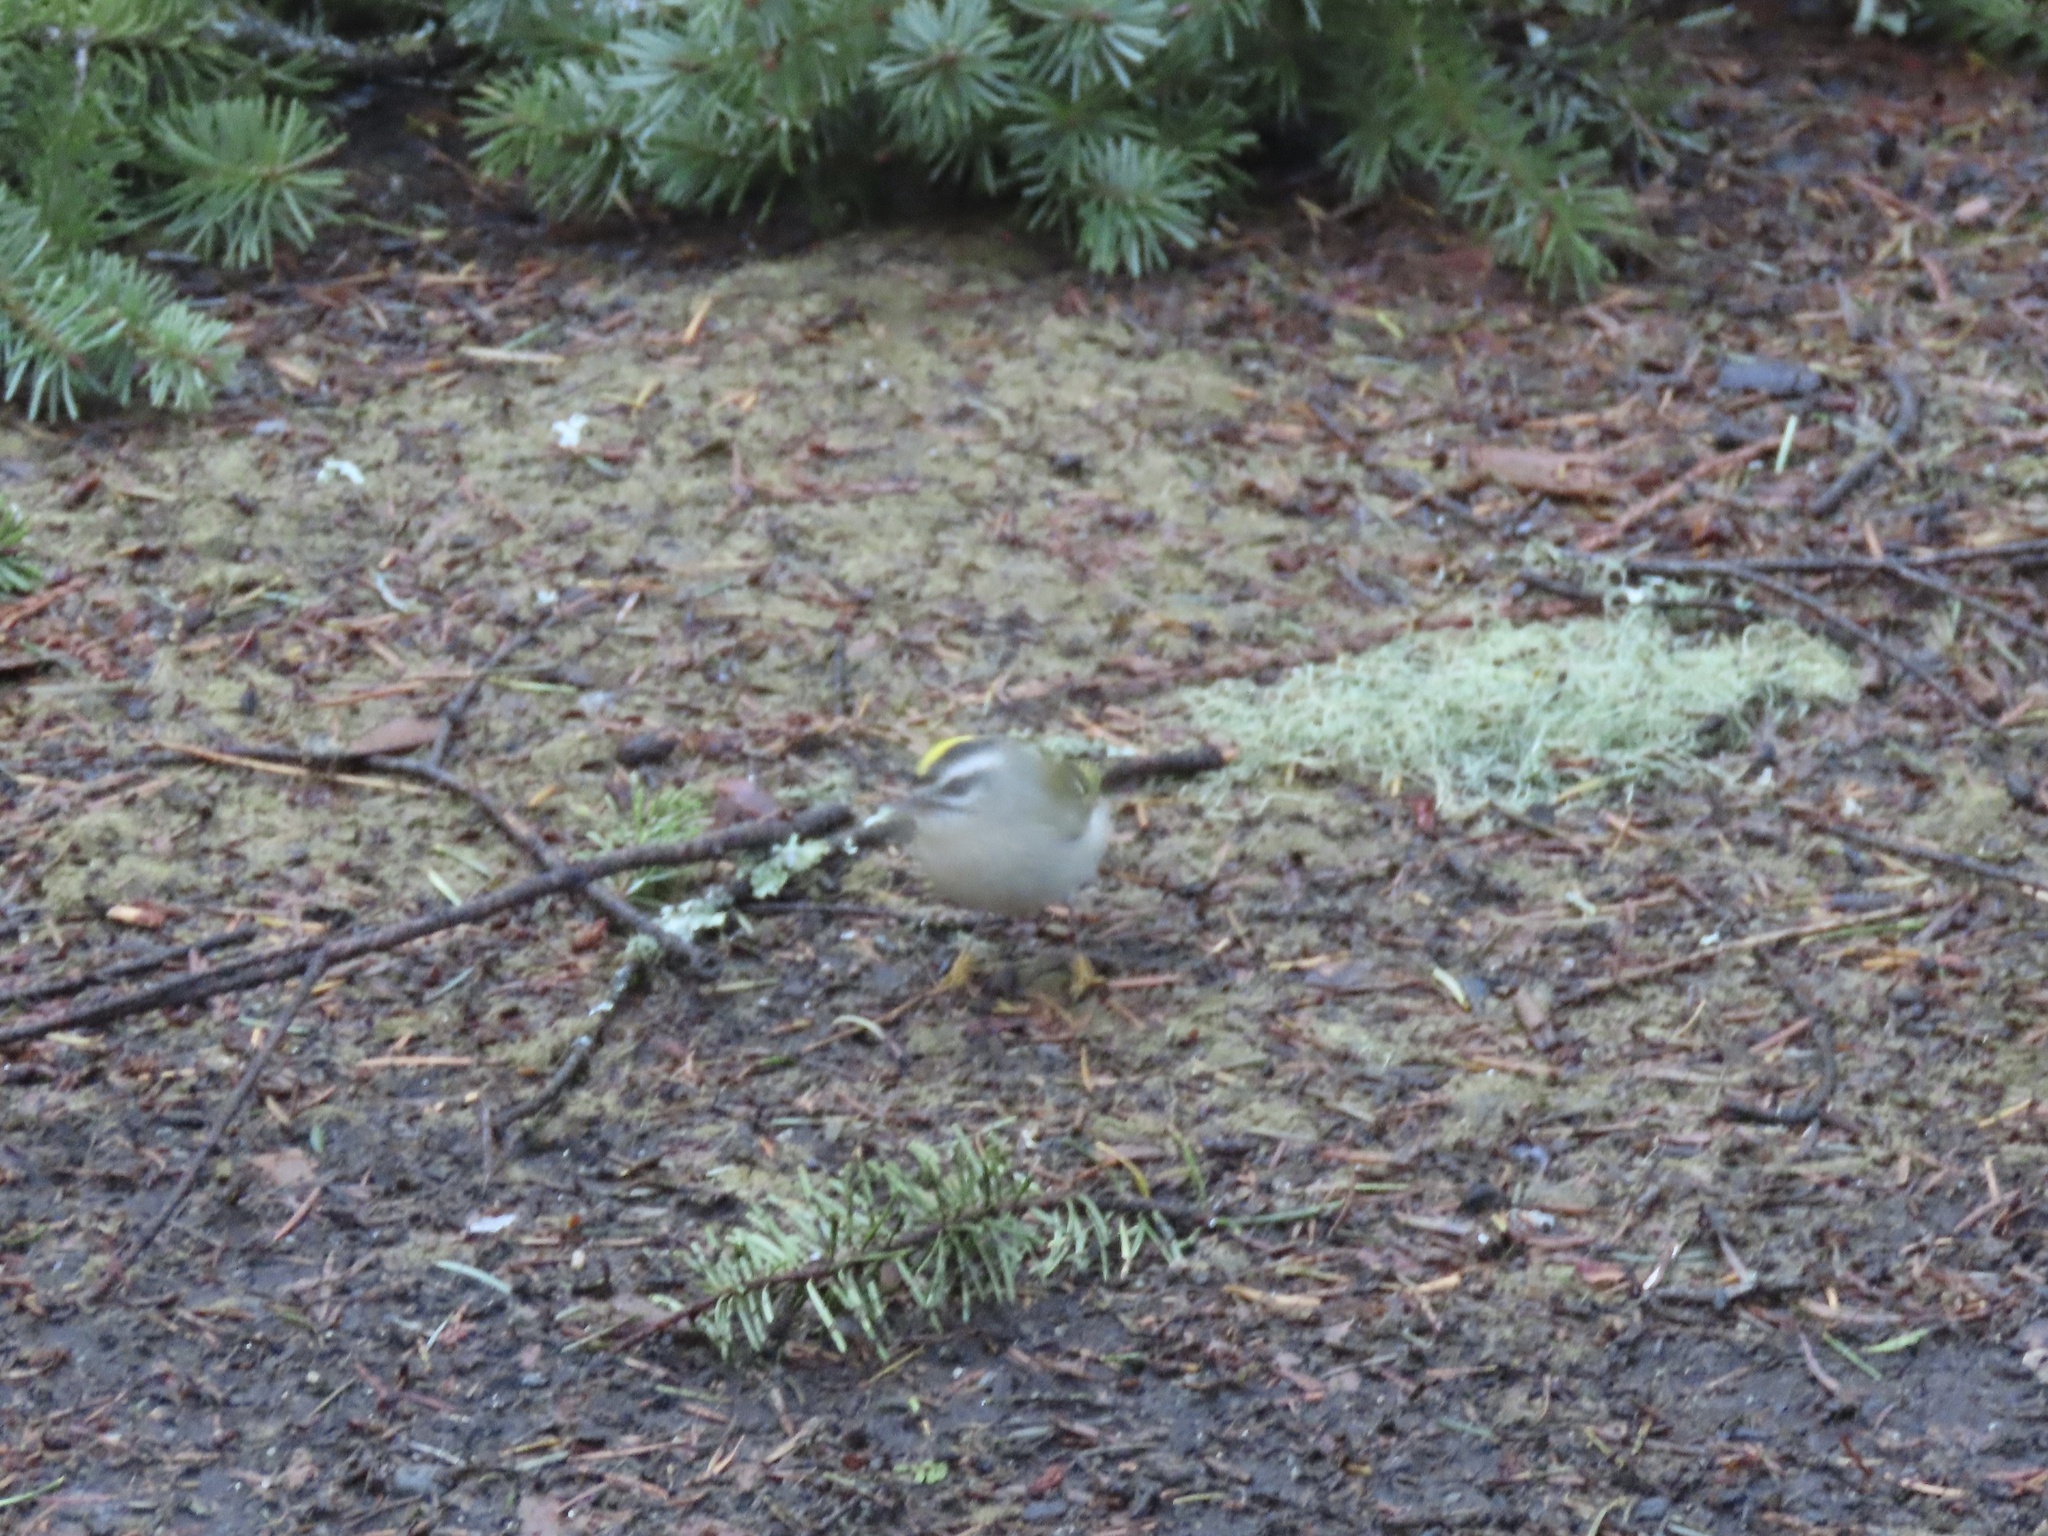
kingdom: Animalia
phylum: Chordata
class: Aves
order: Passeriformes
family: Regulidae
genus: Regulus
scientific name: Regulus satrapa
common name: Golden-crowned kinglet
